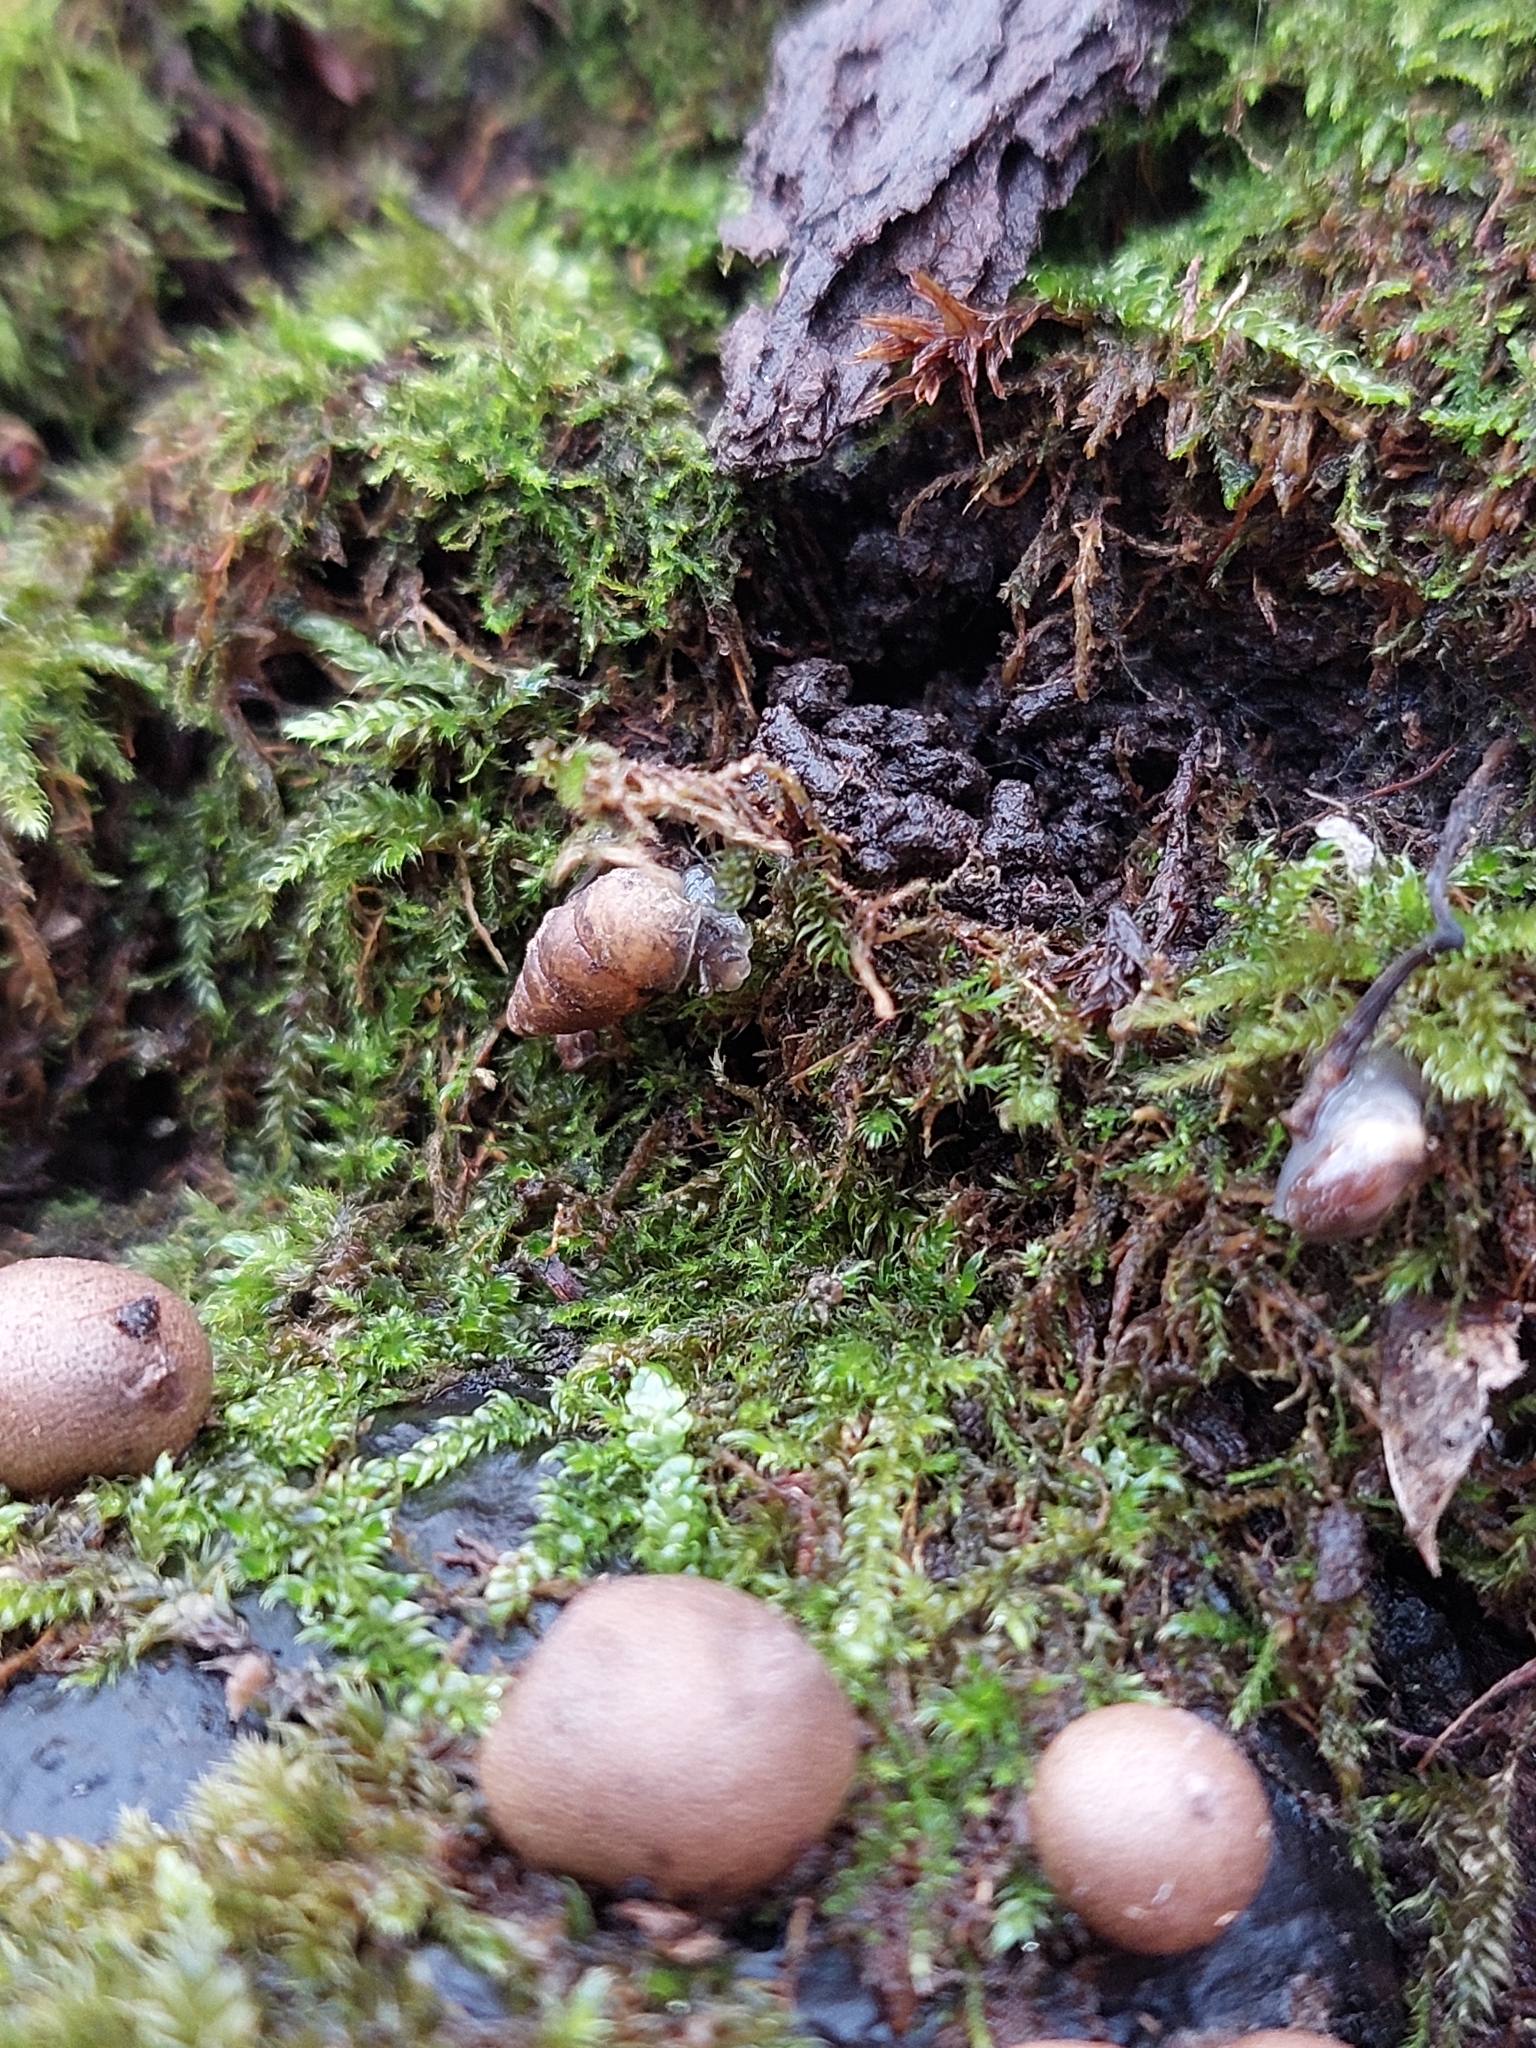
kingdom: Animalia
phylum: Mollusca
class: Gastropoda
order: Stylommatophora
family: Enidae
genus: Merdigera
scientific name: Merdigera obscura
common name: Lesser bulin
